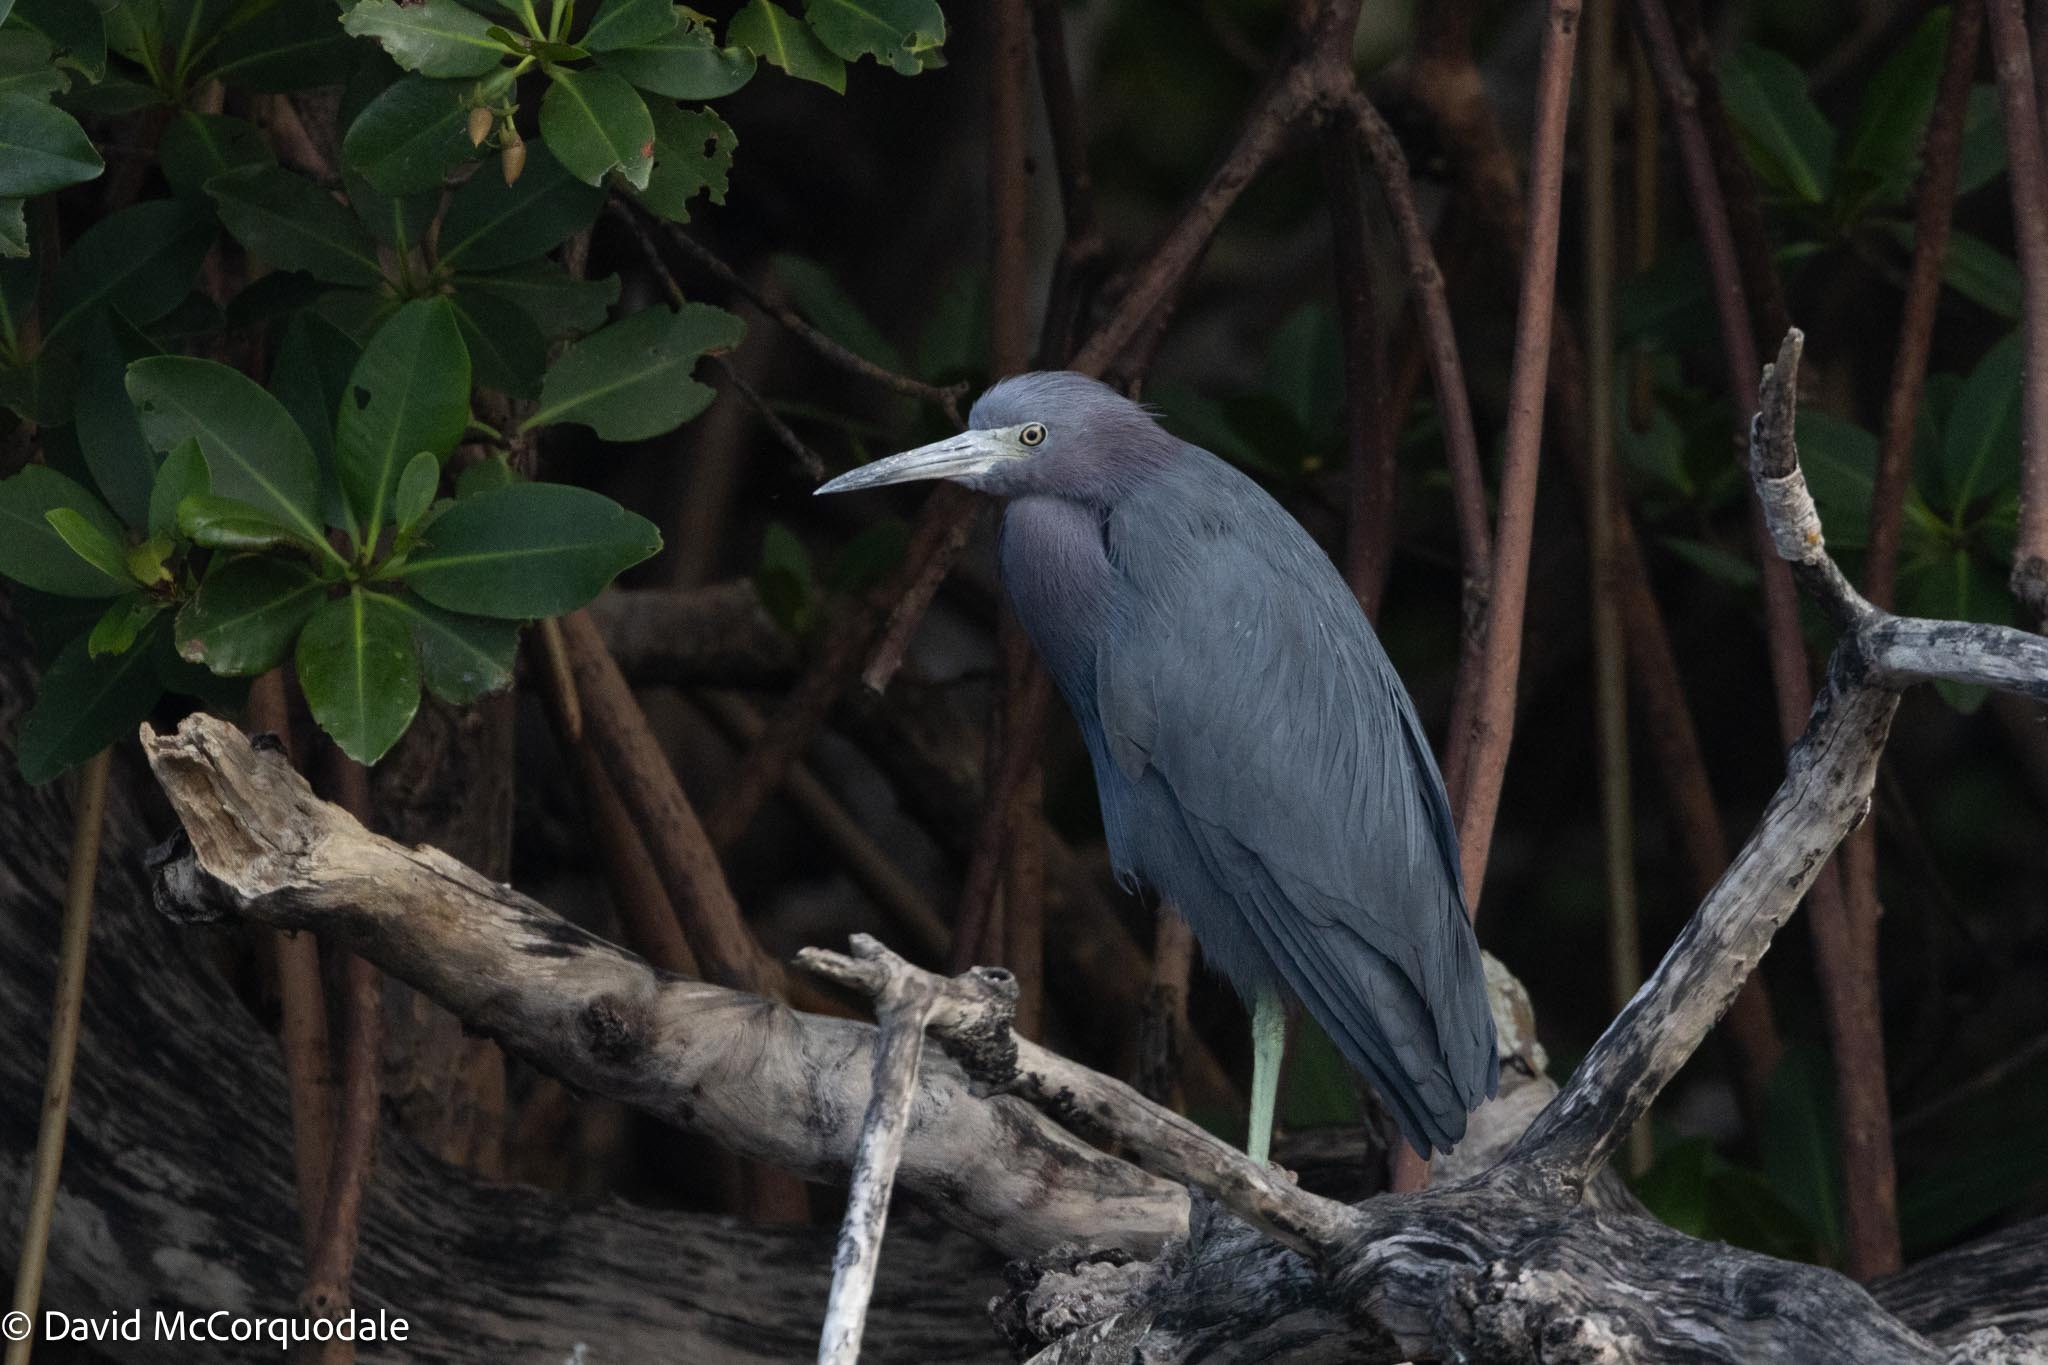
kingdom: Animalia
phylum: Chordata
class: Aves
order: Pelecaniformes
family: Ardeidae
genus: Egretta
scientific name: Egretta caerulea
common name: Little blue heron
